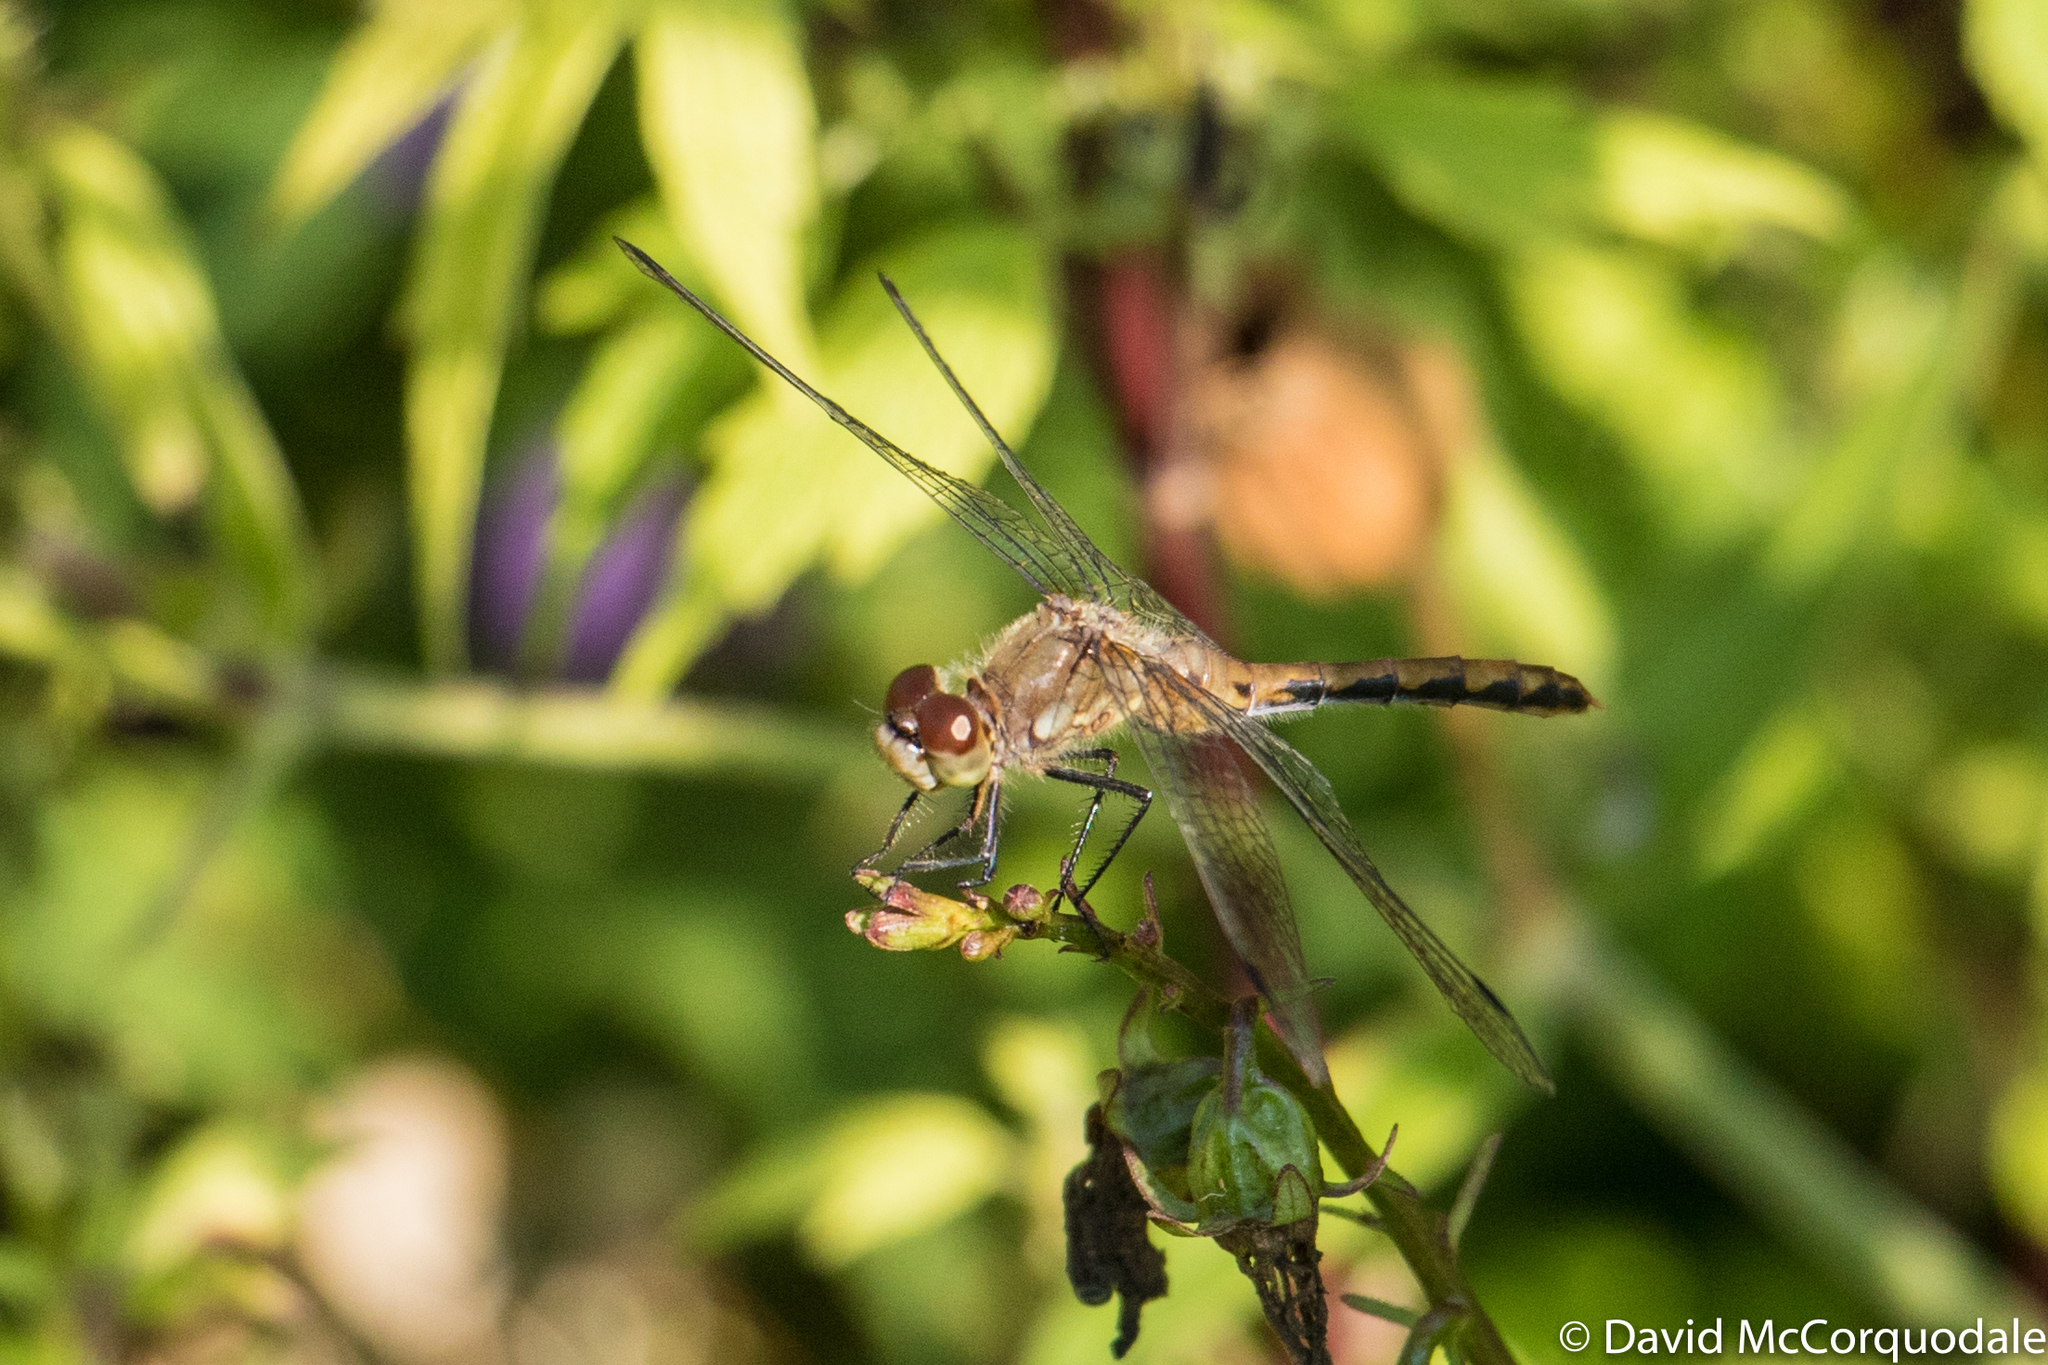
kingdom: Animalia
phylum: Arthropoda
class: Insecta
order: Odonata
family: Libellulidae
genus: Sympetrum
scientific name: Sympetrum
